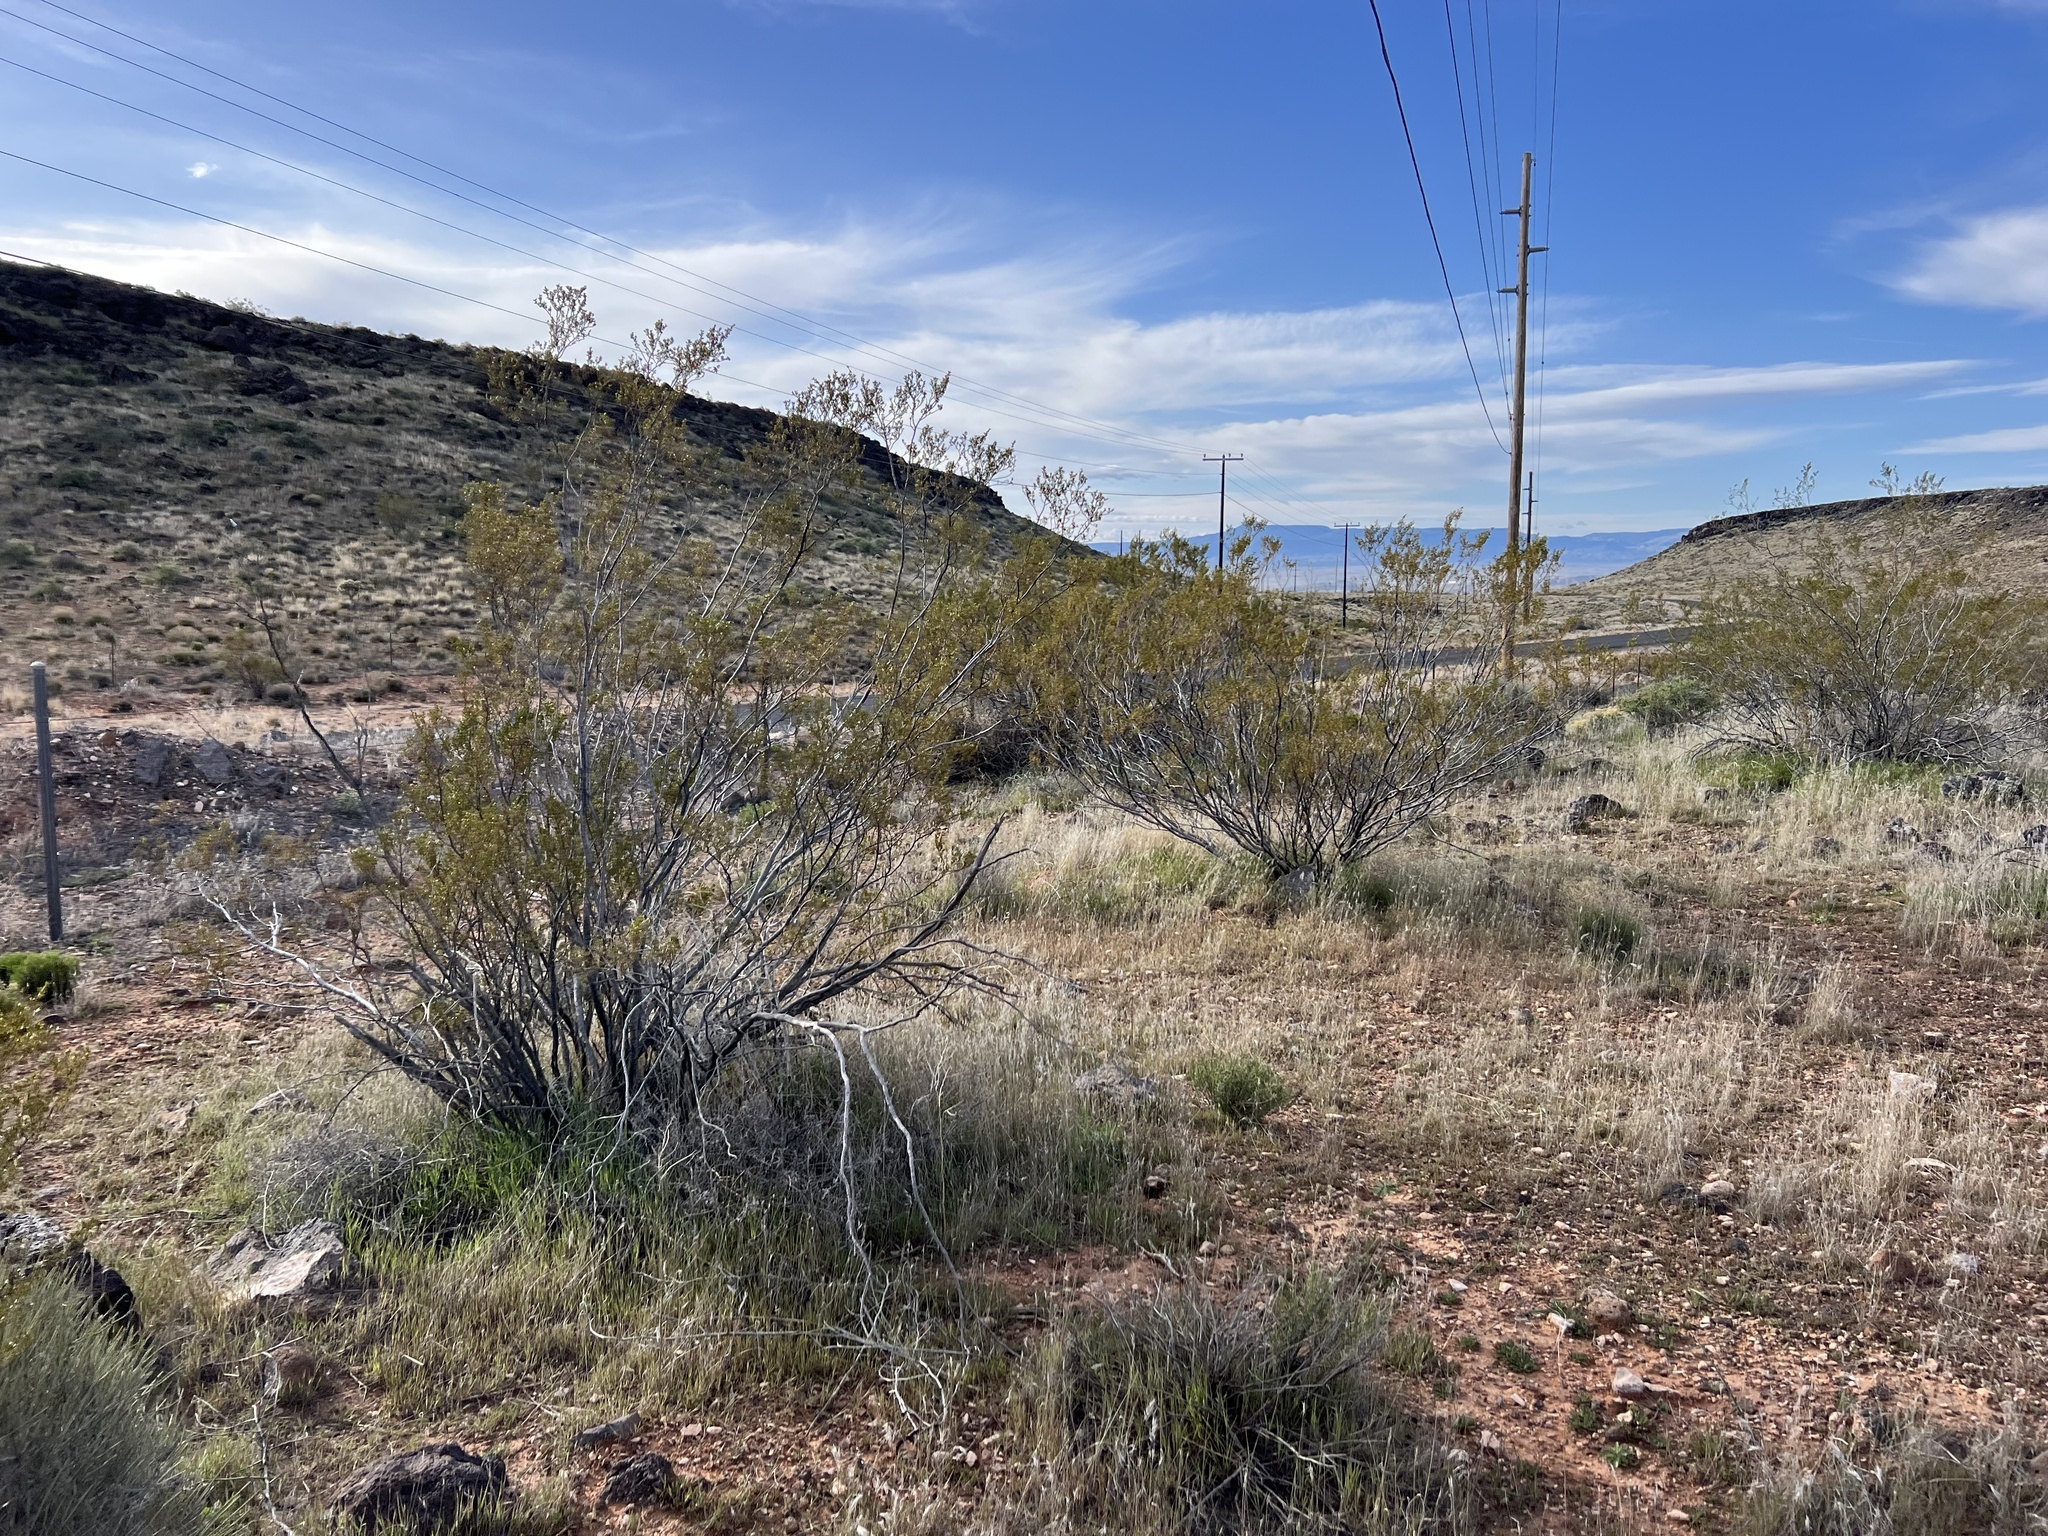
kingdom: Plantae
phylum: Tracheophyta
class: Magnoliopsida
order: Zygophyllales
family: Zygophyllaceae
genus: Larrea
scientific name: Larrea tridentata
